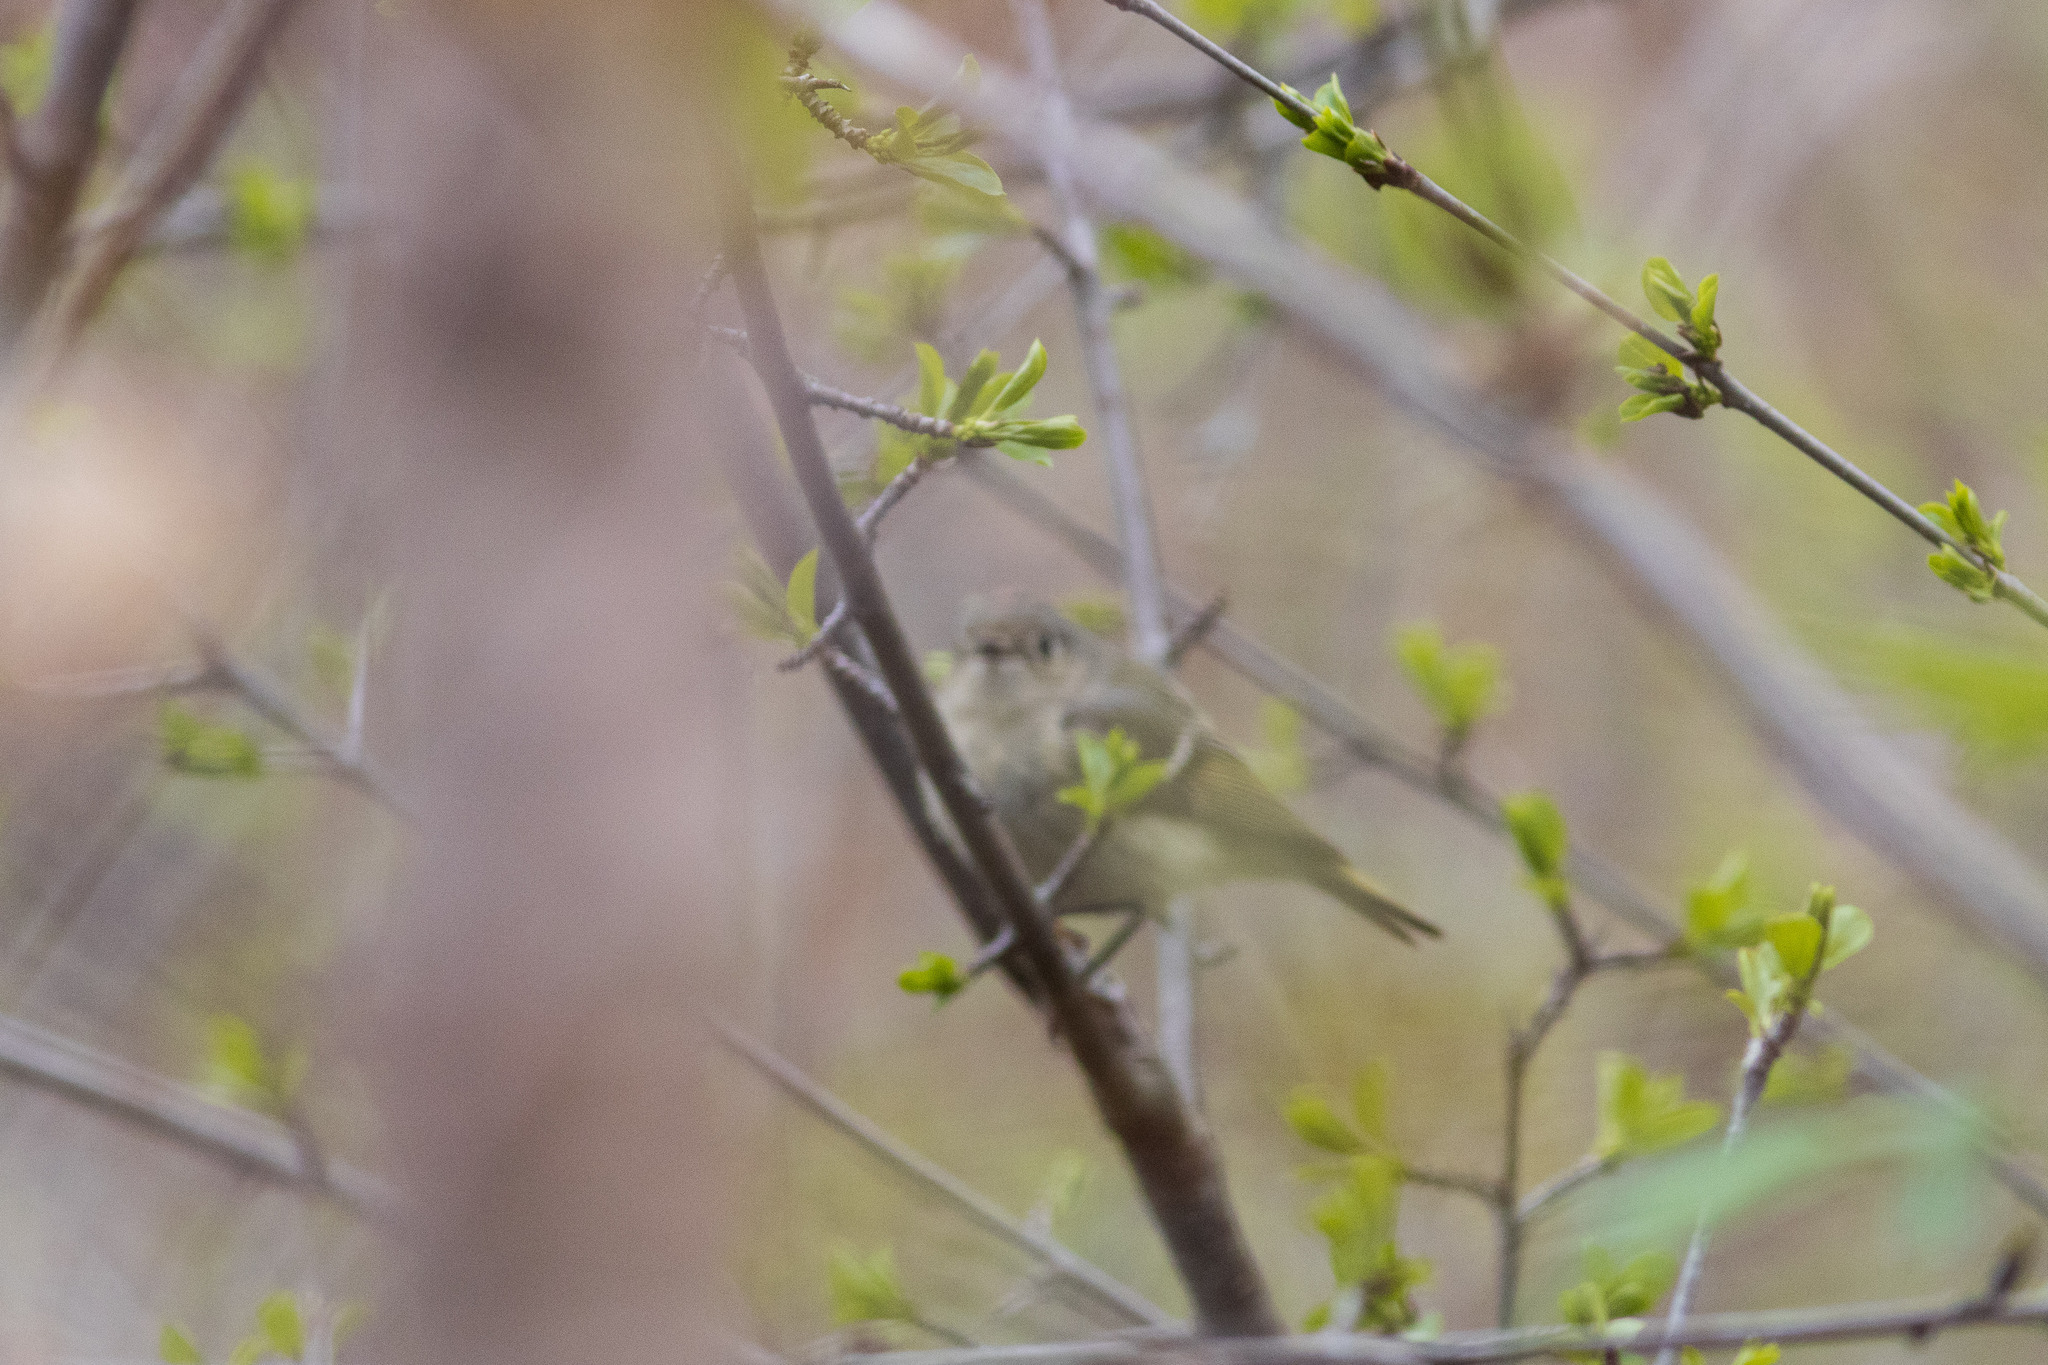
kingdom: Animalia
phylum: Chordata
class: Aves
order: Passeriformes
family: Regulidae
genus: Regulus
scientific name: Regulus calendula
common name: Ruby-crowned kinglet
